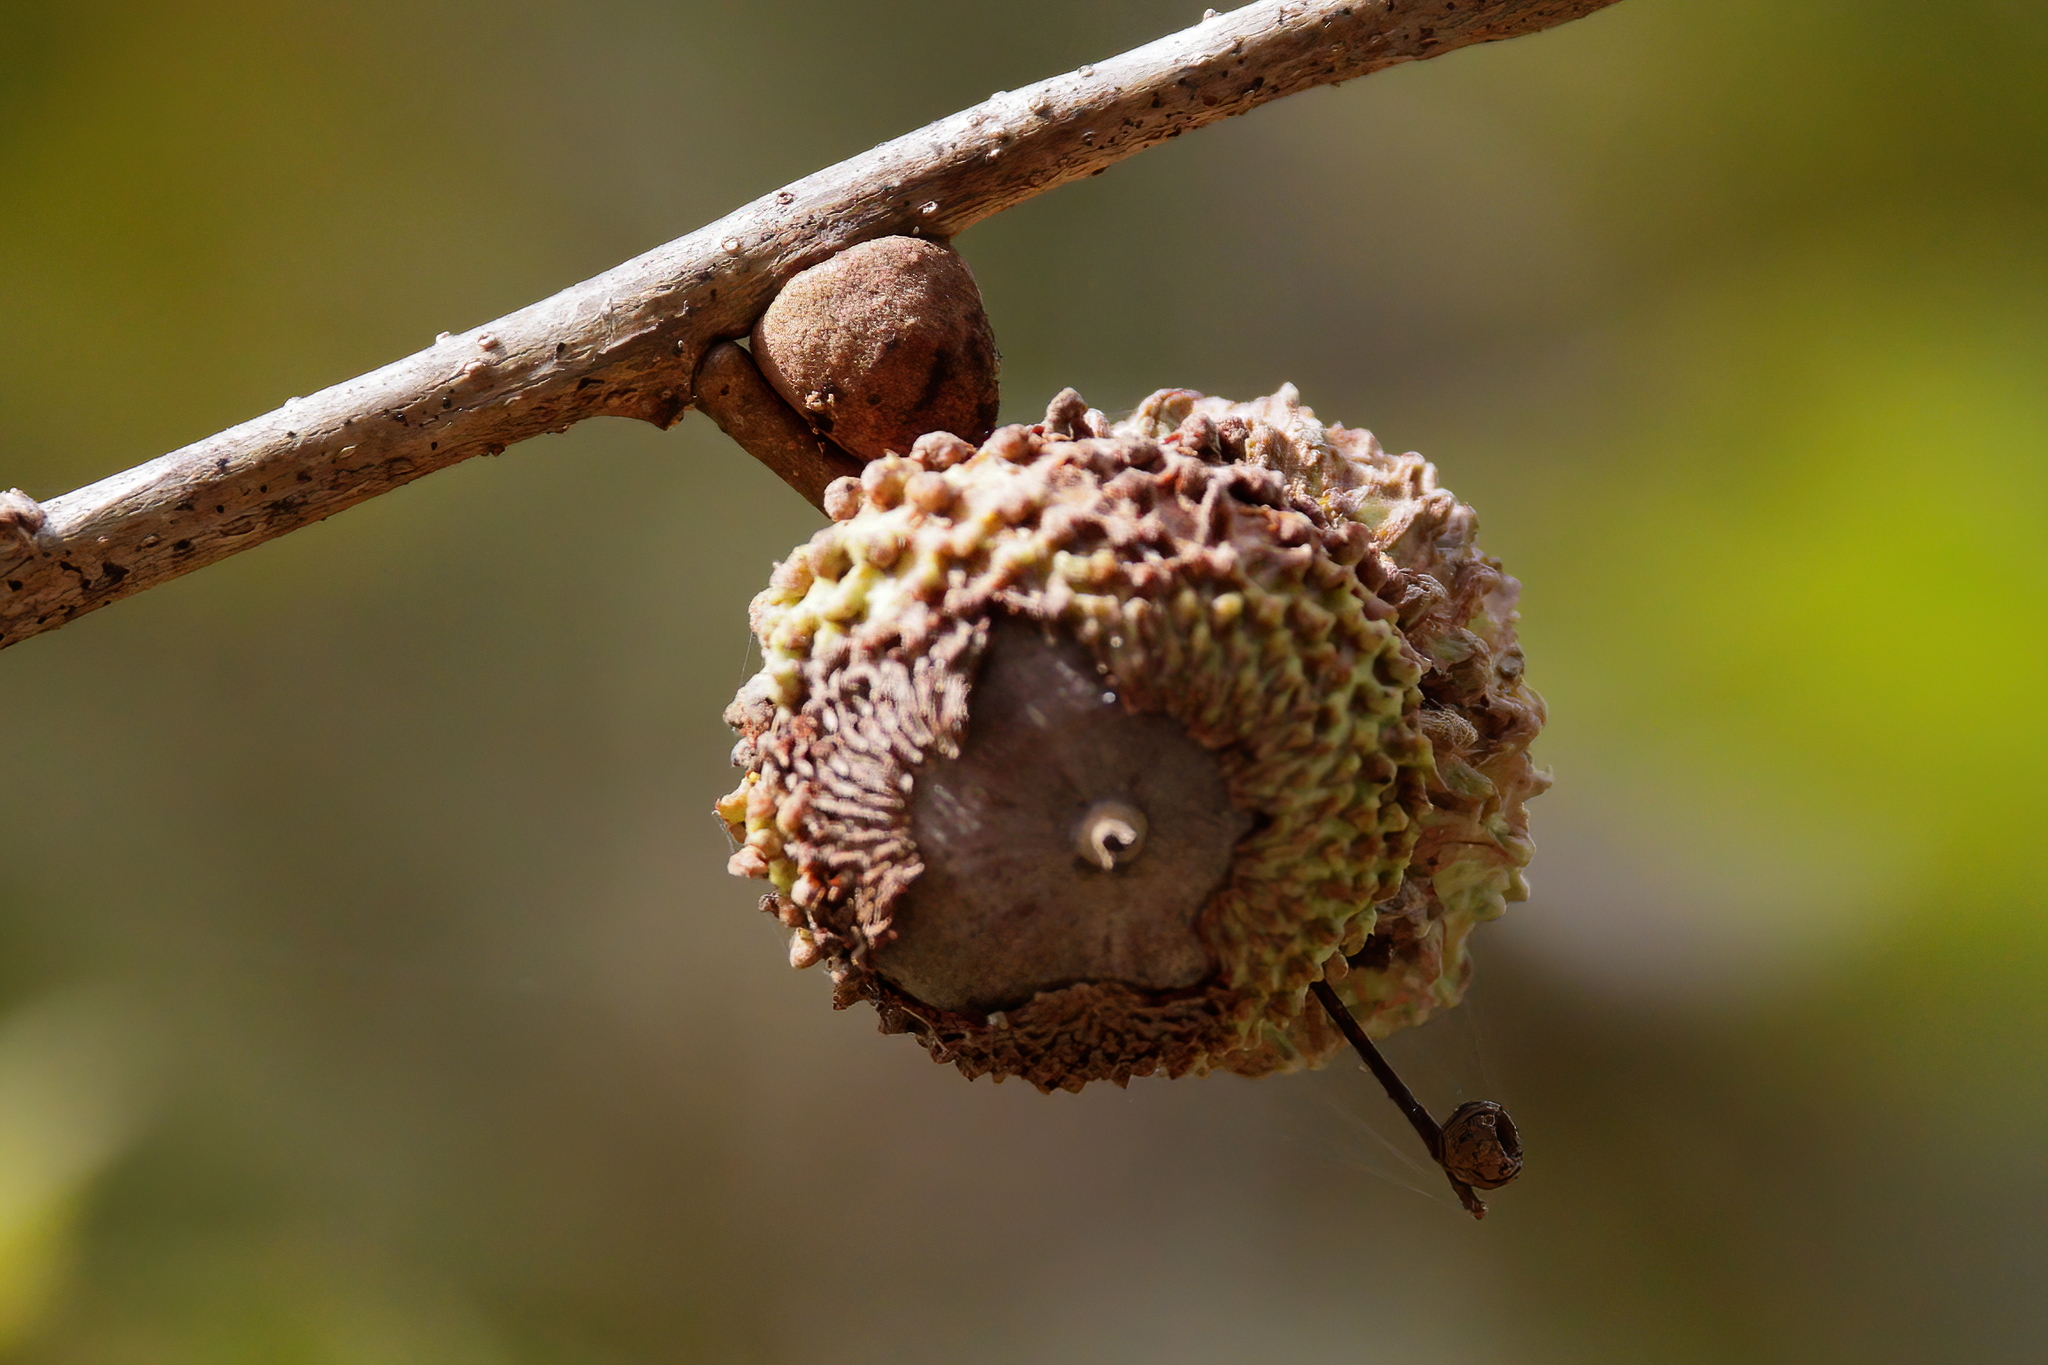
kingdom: Plantae
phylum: Tracheophyta
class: Magnoliopsida
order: Fagales
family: Fagaceae
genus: Quercus
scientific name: Quercus lyrata
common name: Overcup oak
